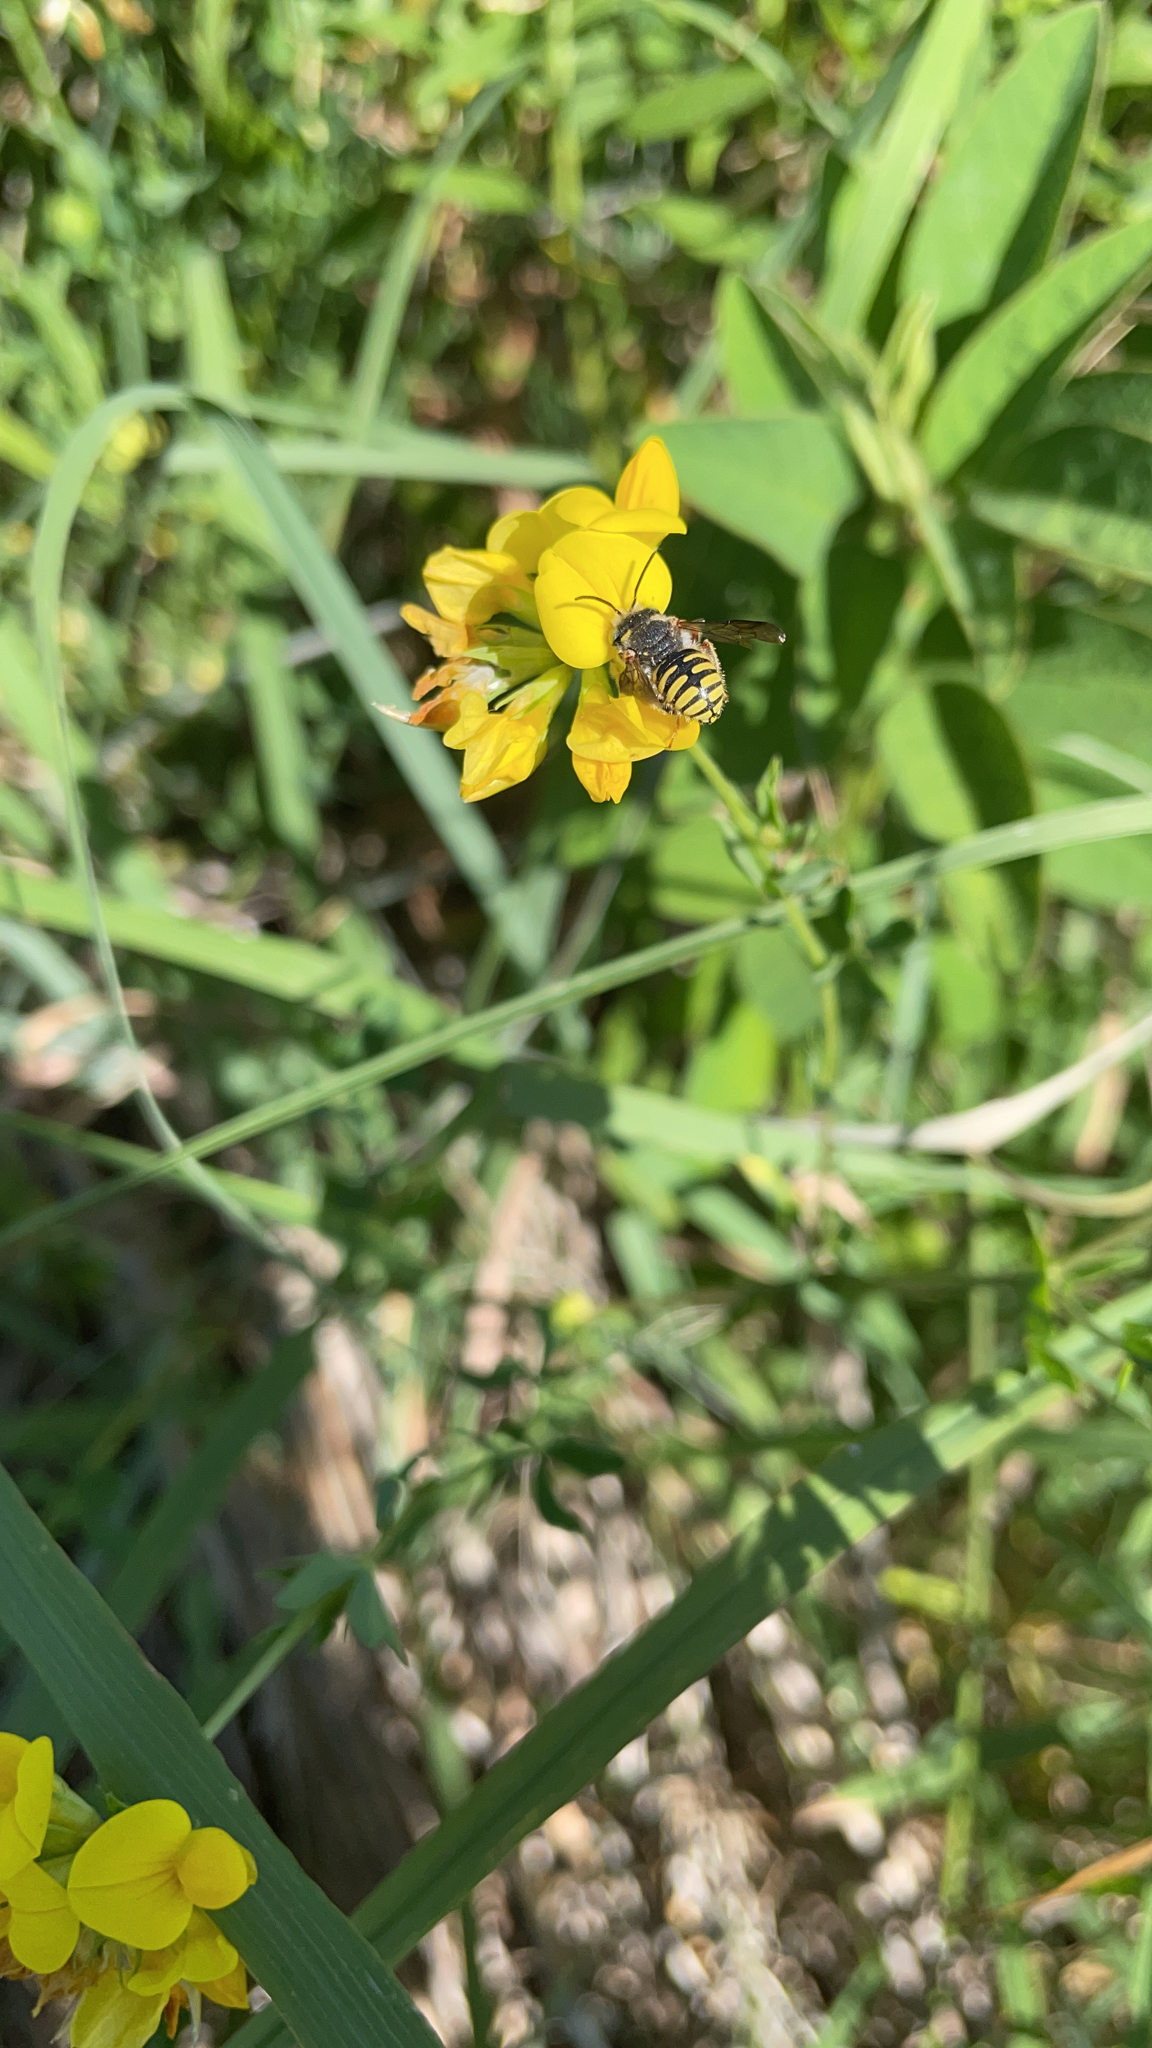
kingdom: Animalia
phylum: Arthropoda
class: Insecta
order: Hymenoptera
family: Megachilidae
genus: Anthidium
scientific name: Anthidium oblongatum
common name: Oblong wool carder bee
